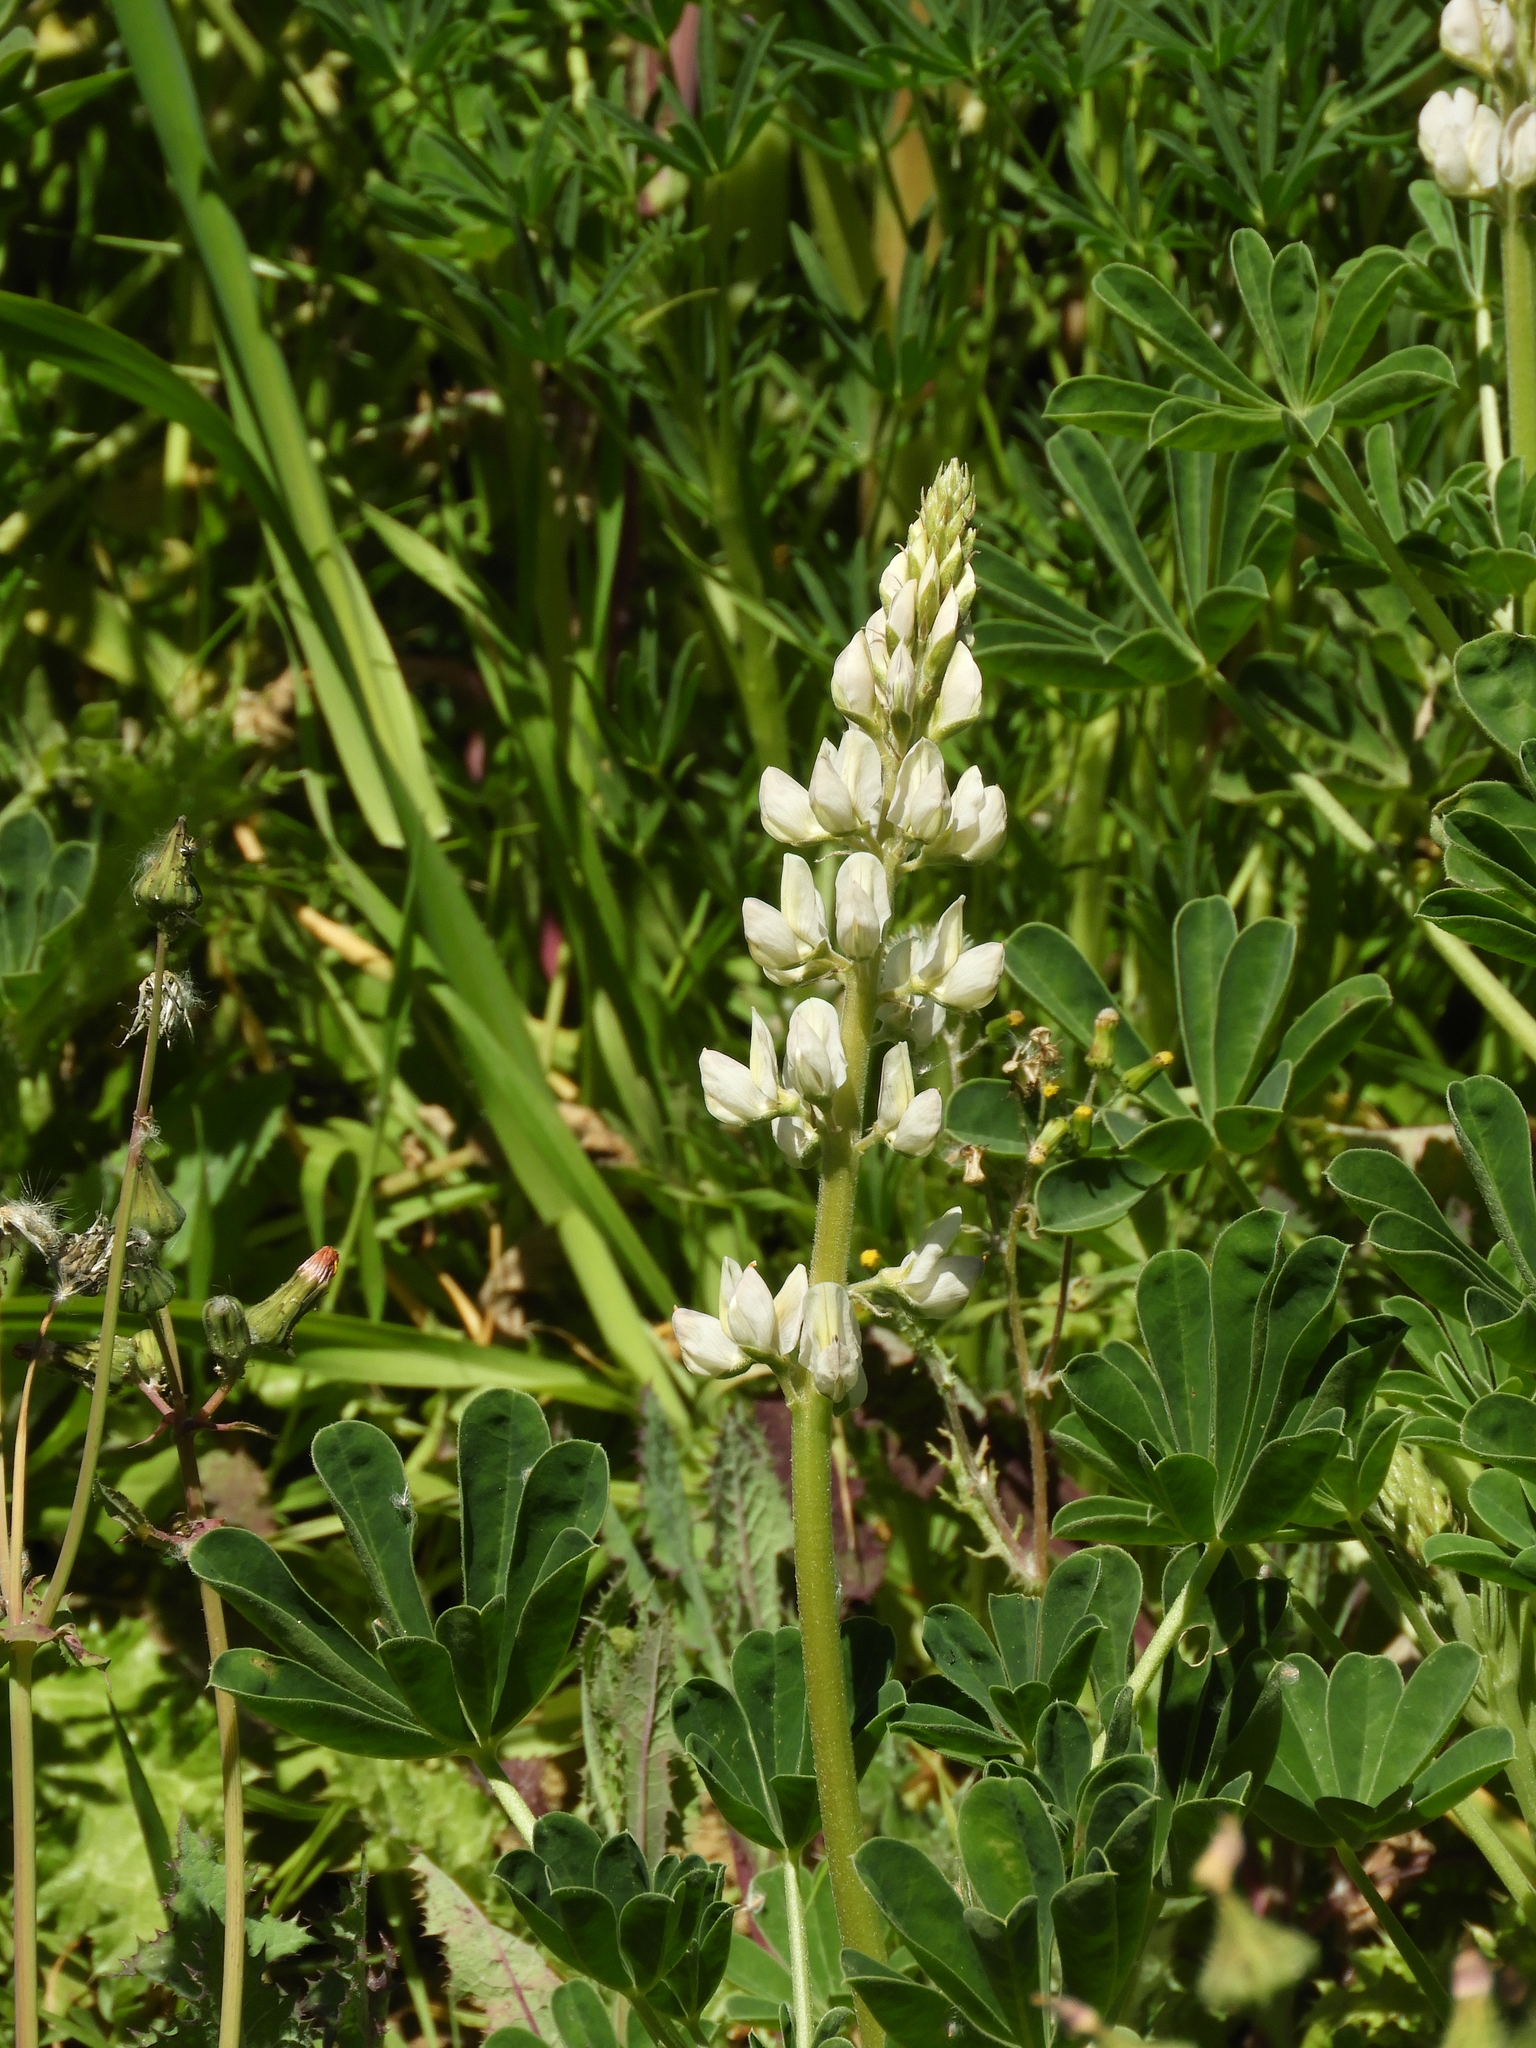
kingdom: Plantae
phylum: Tracheophyta
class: Magnoliopsida
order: Fabales
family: Fabaceae
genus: Lupinus
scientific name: Lupinus microcarpus
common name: Chick lupine
